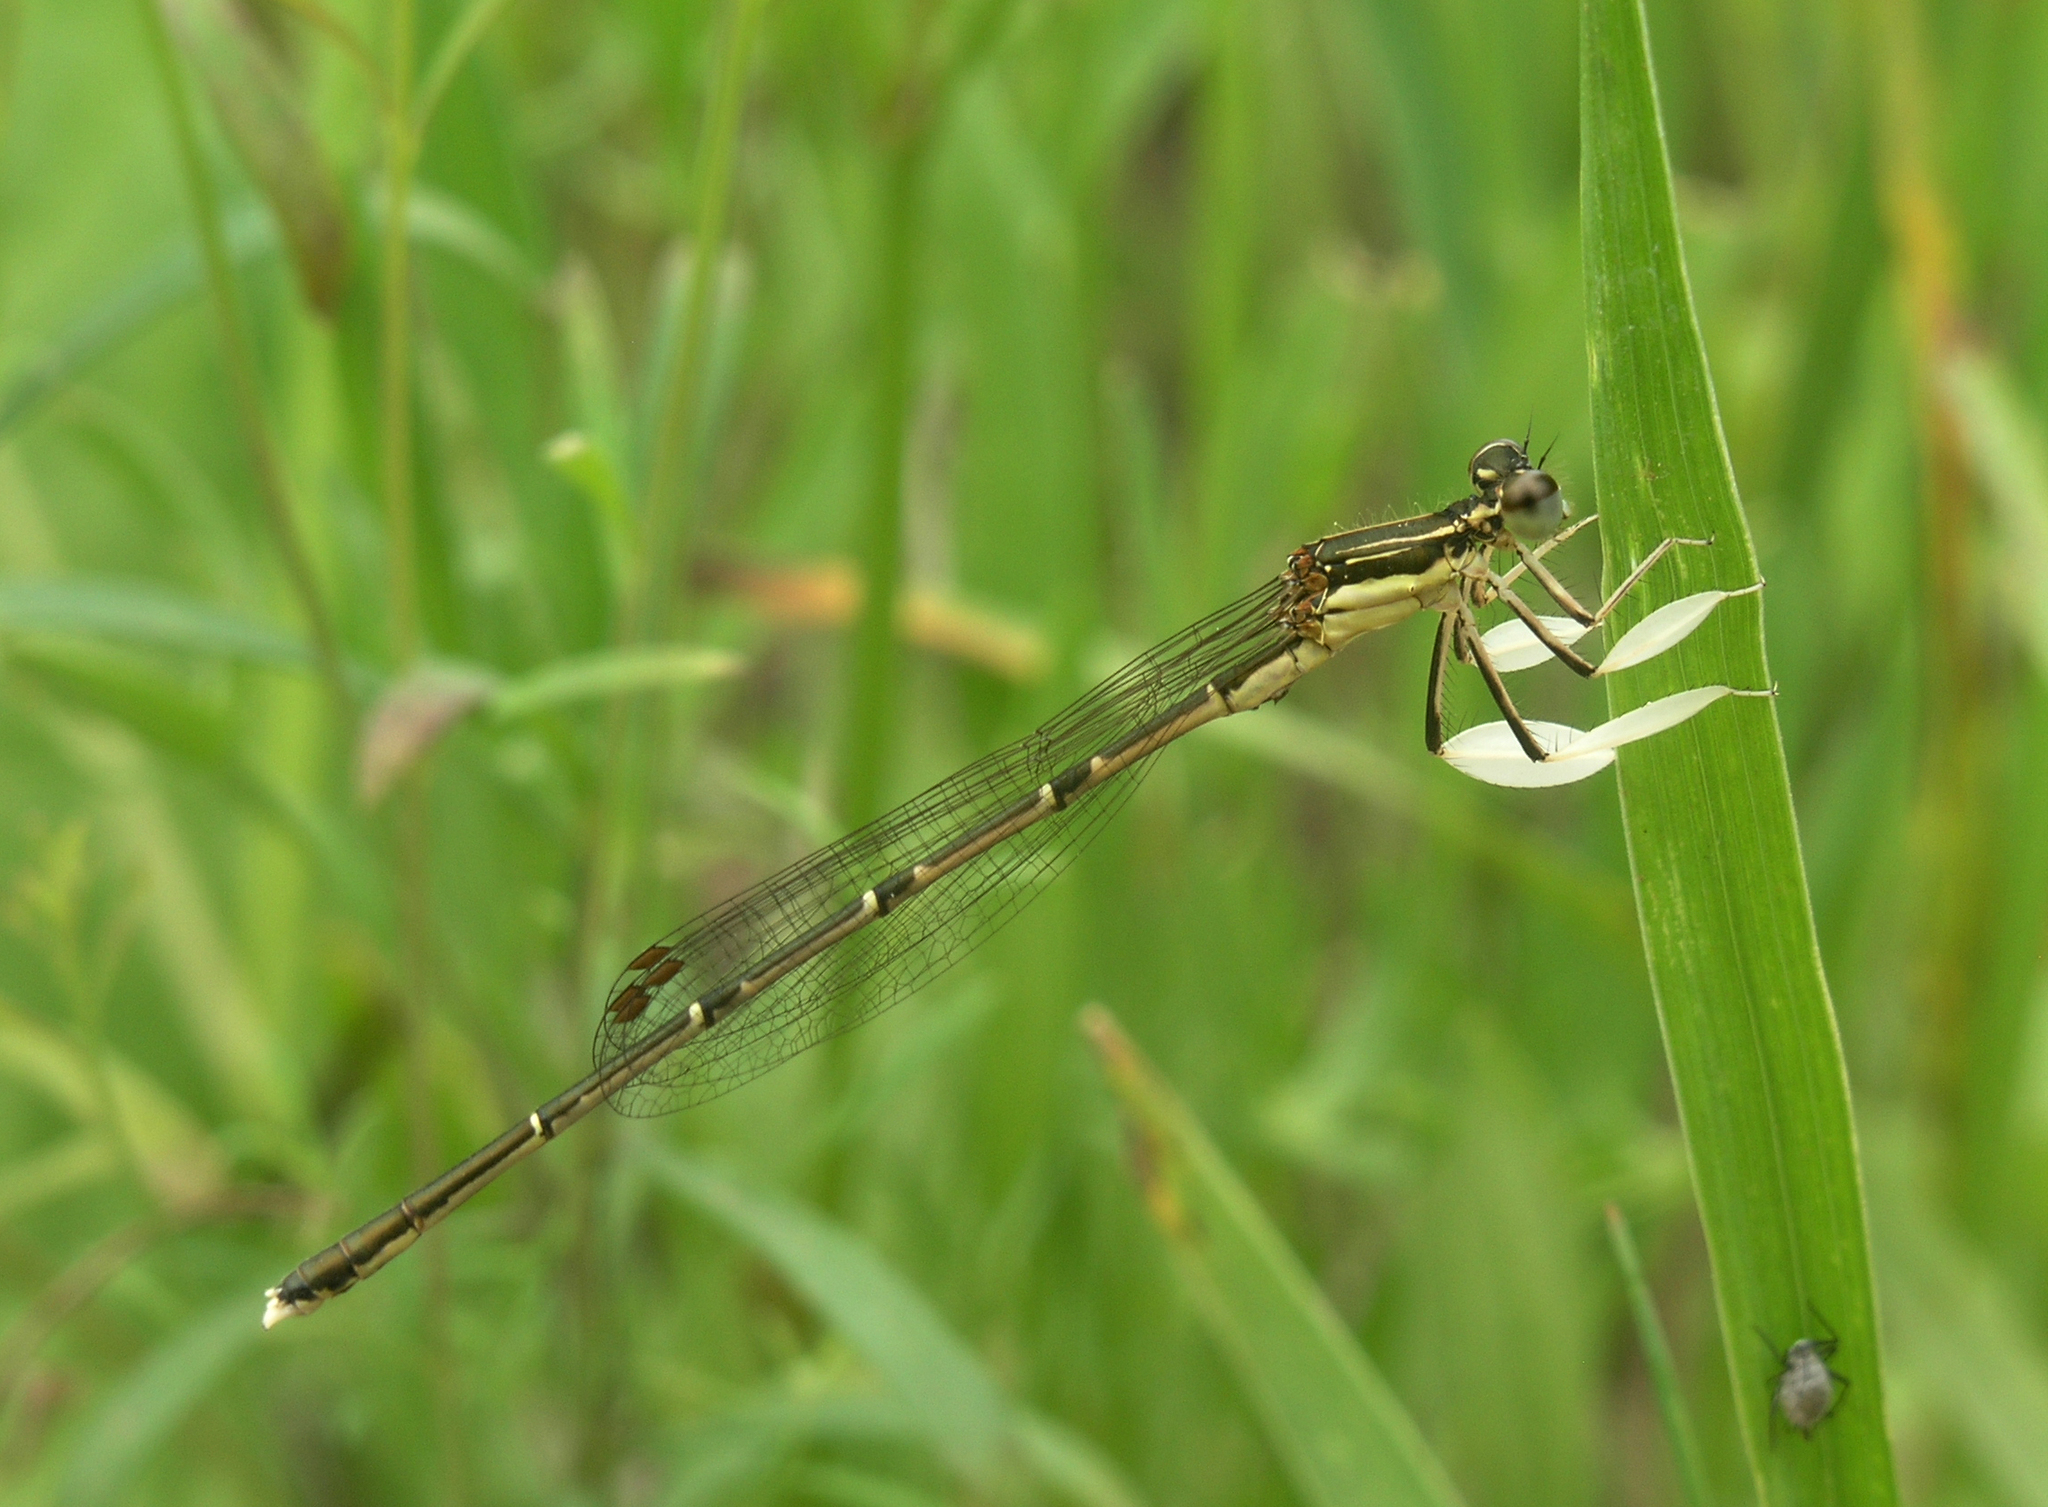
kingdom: Animalia
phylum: Arthropoda
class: Insecta
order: Odonata
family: Platycnemididae
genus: Platycnemis
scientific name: Platycnemis phyllopoda
